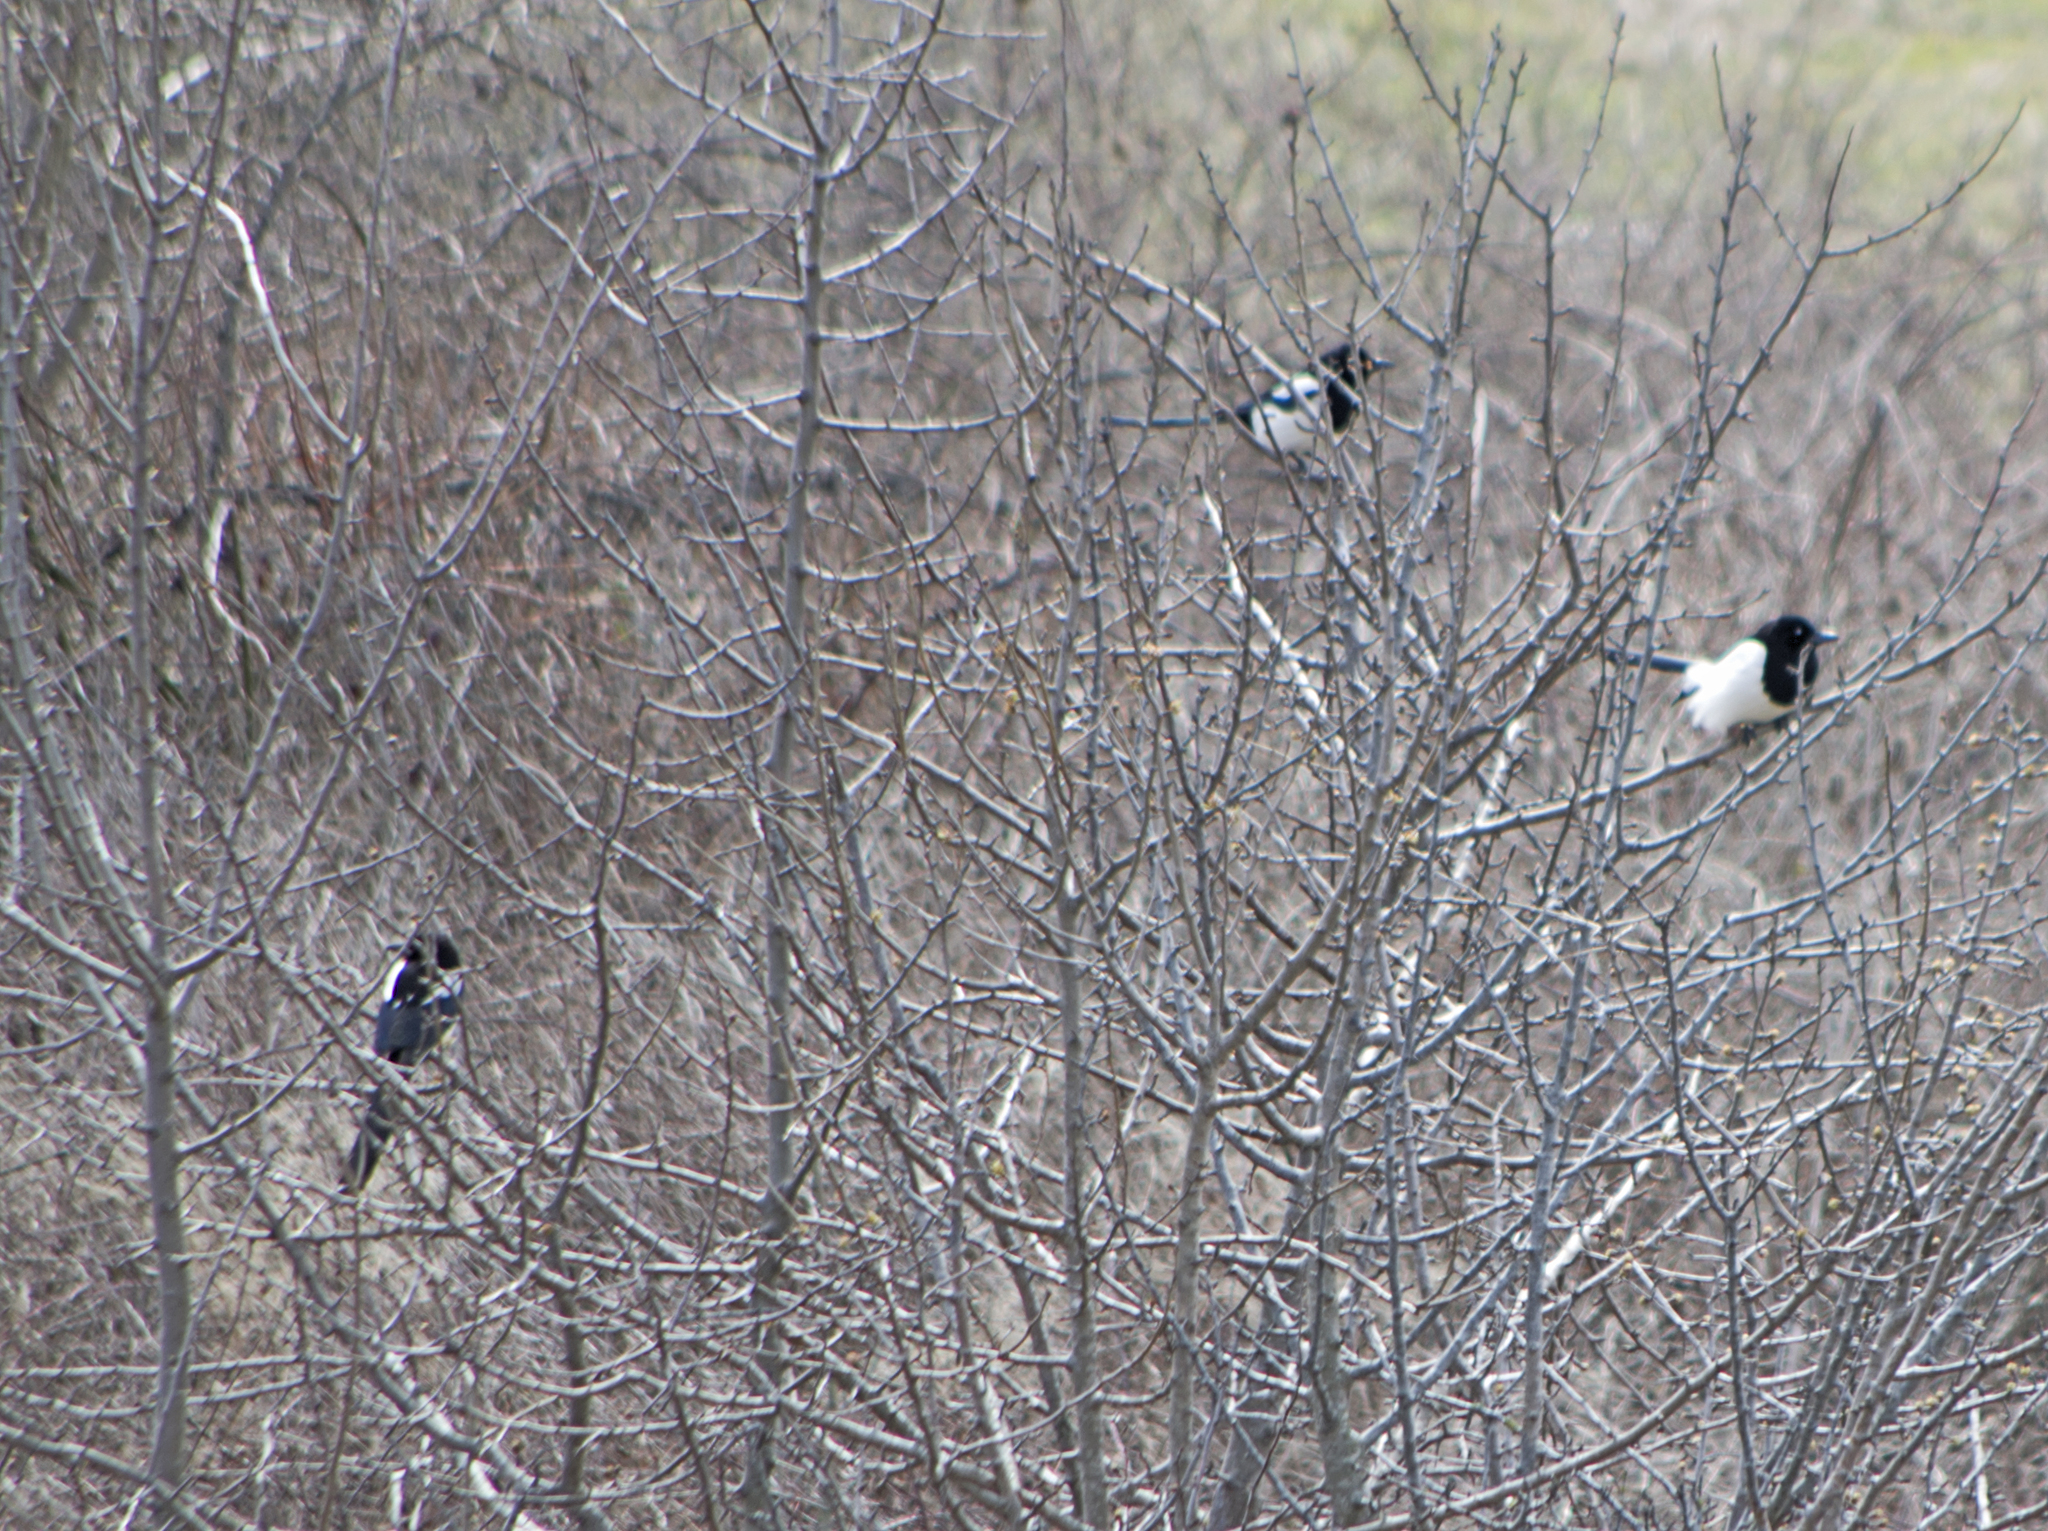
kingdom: Animalia
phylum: Chordata
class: Aves
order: Passeriformes
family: Corvidae
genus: Pica
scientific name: Pica pica
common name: Eurasian magpie
